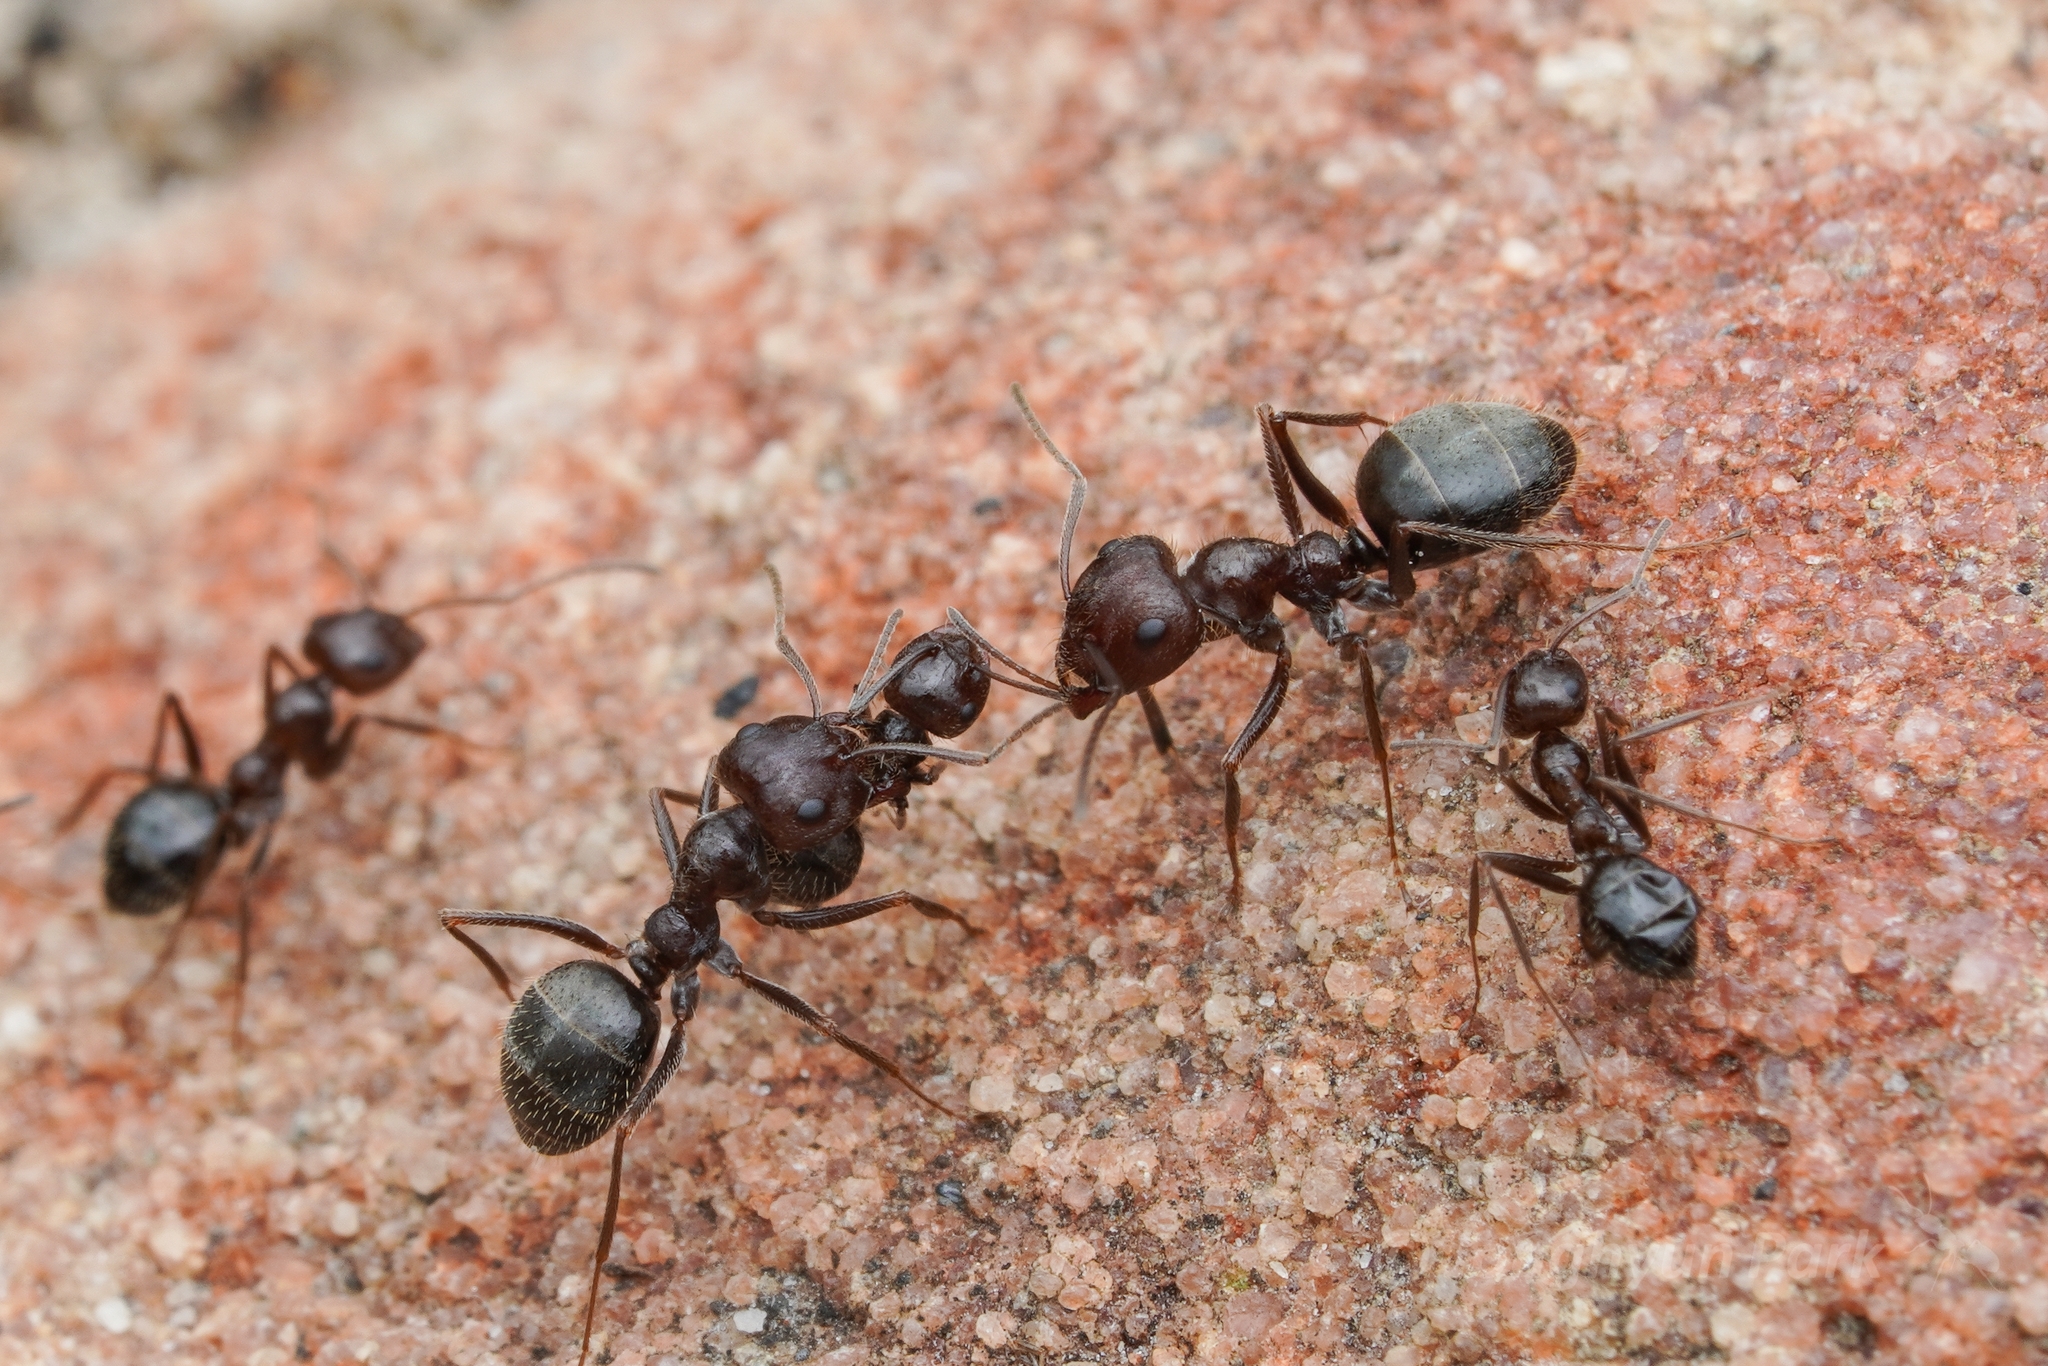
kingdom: Animalia
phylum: Arthropoda
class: Insecta
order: Hymenoptera
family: Formicidae
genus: Anoplolepis
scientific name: Anoplolepis steingroeveri
